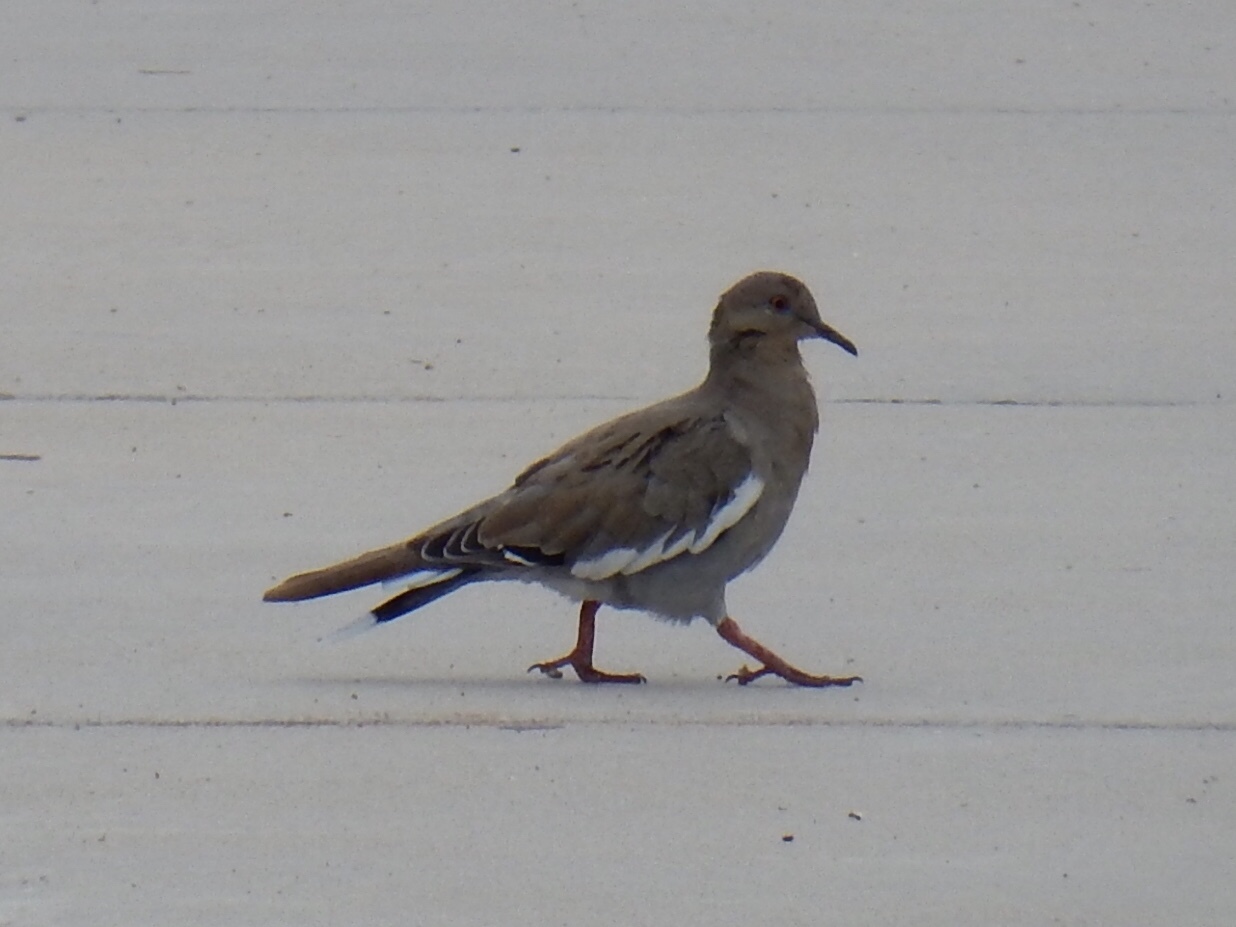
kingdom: Animalia
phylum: Chordata
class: Aves
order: Columbiformes
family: Columbidae
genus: Zenaida
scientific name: Zenaida asiatica
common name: White-winged dove
